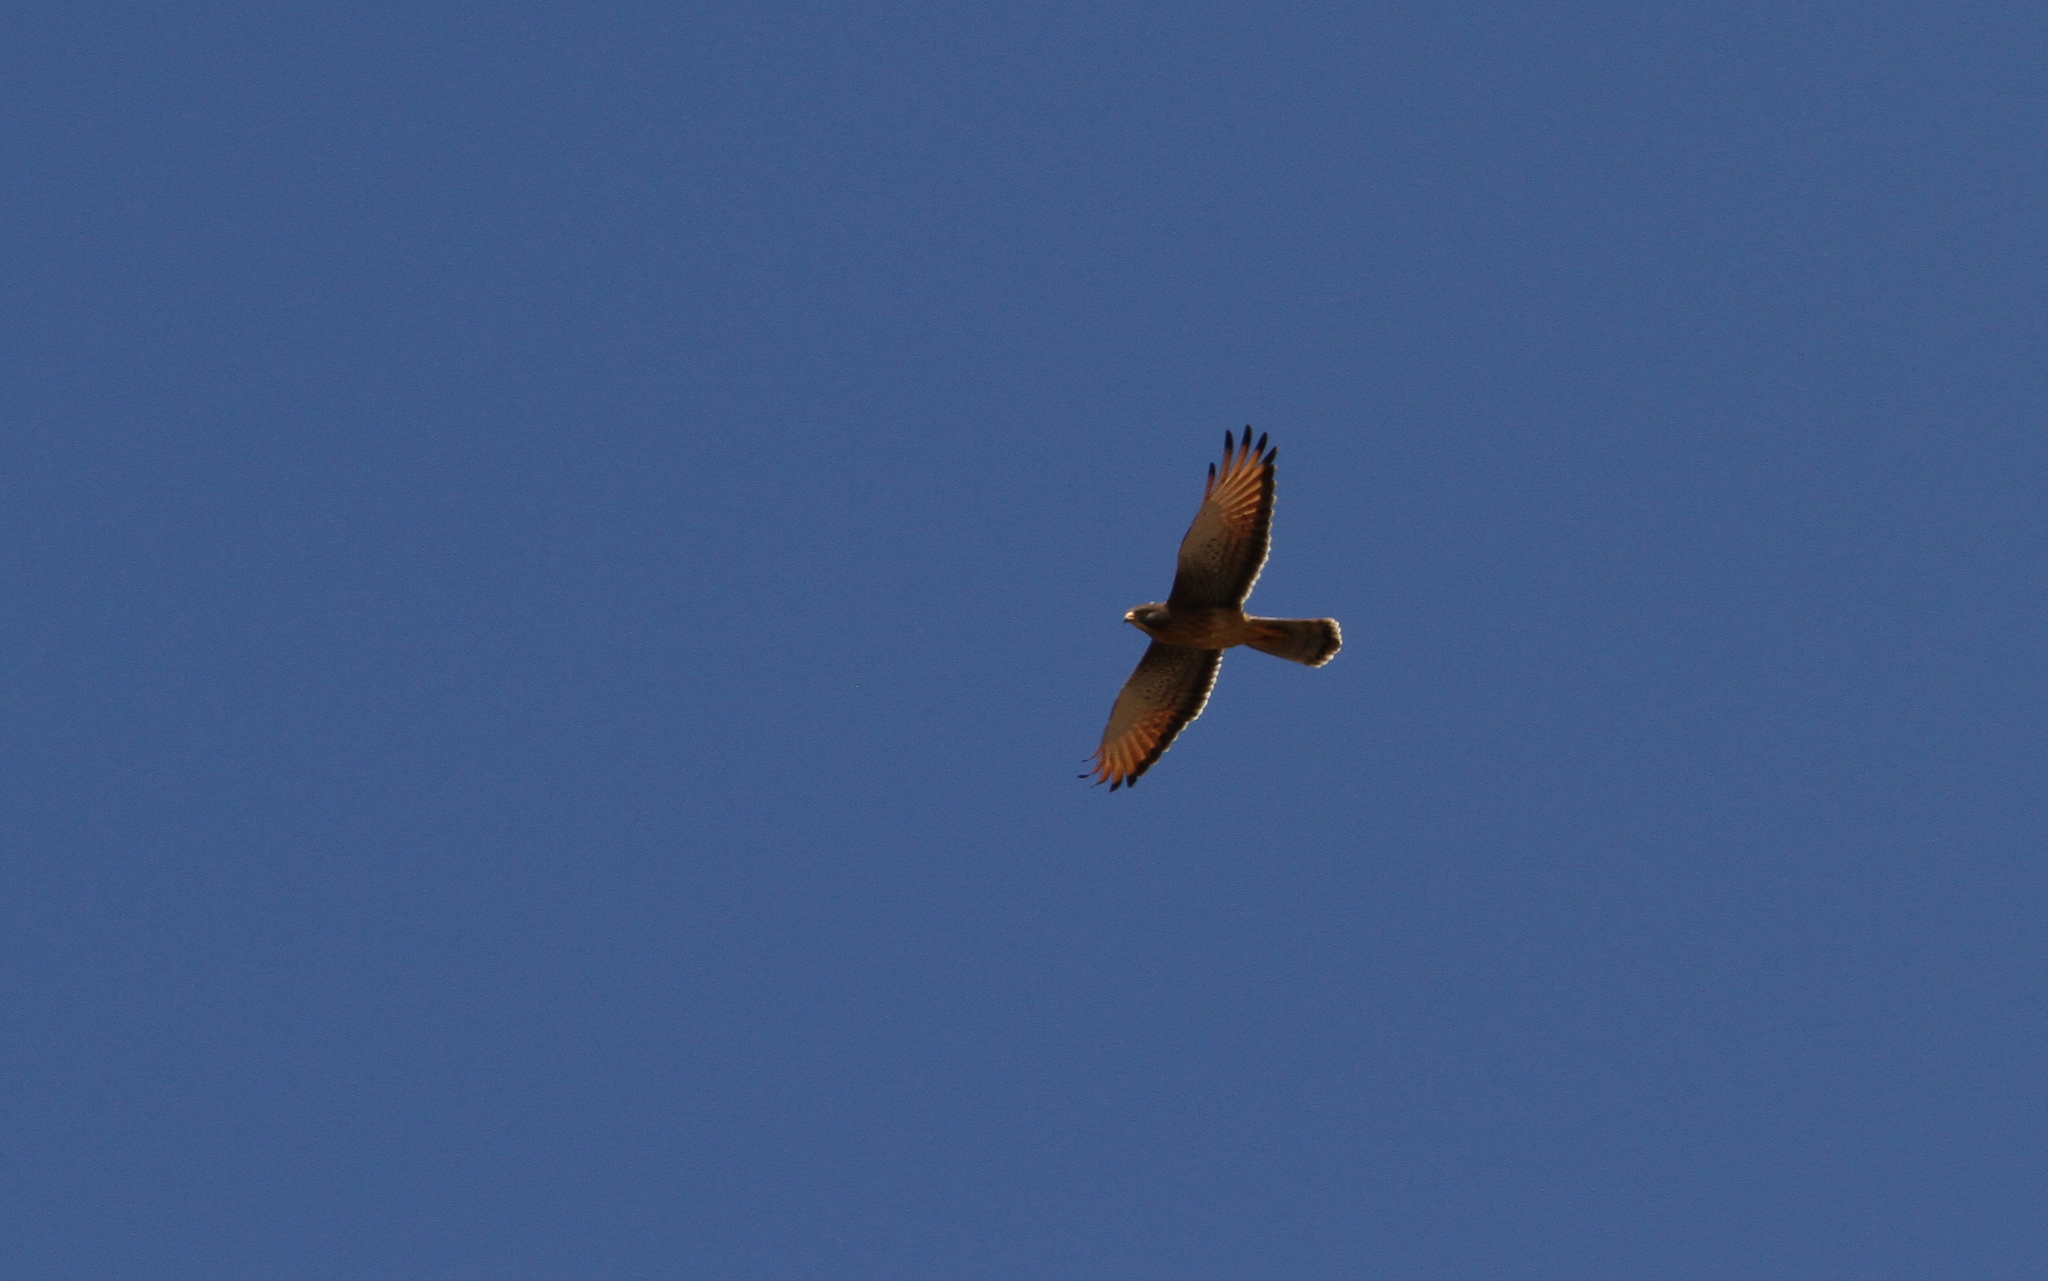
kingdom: Animalia
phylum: Chordata
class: Aves
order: Accipitriformes
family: Accipitridae
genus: Butastur
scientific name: Butastur rufipennis
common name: Grasshopper buzzard
